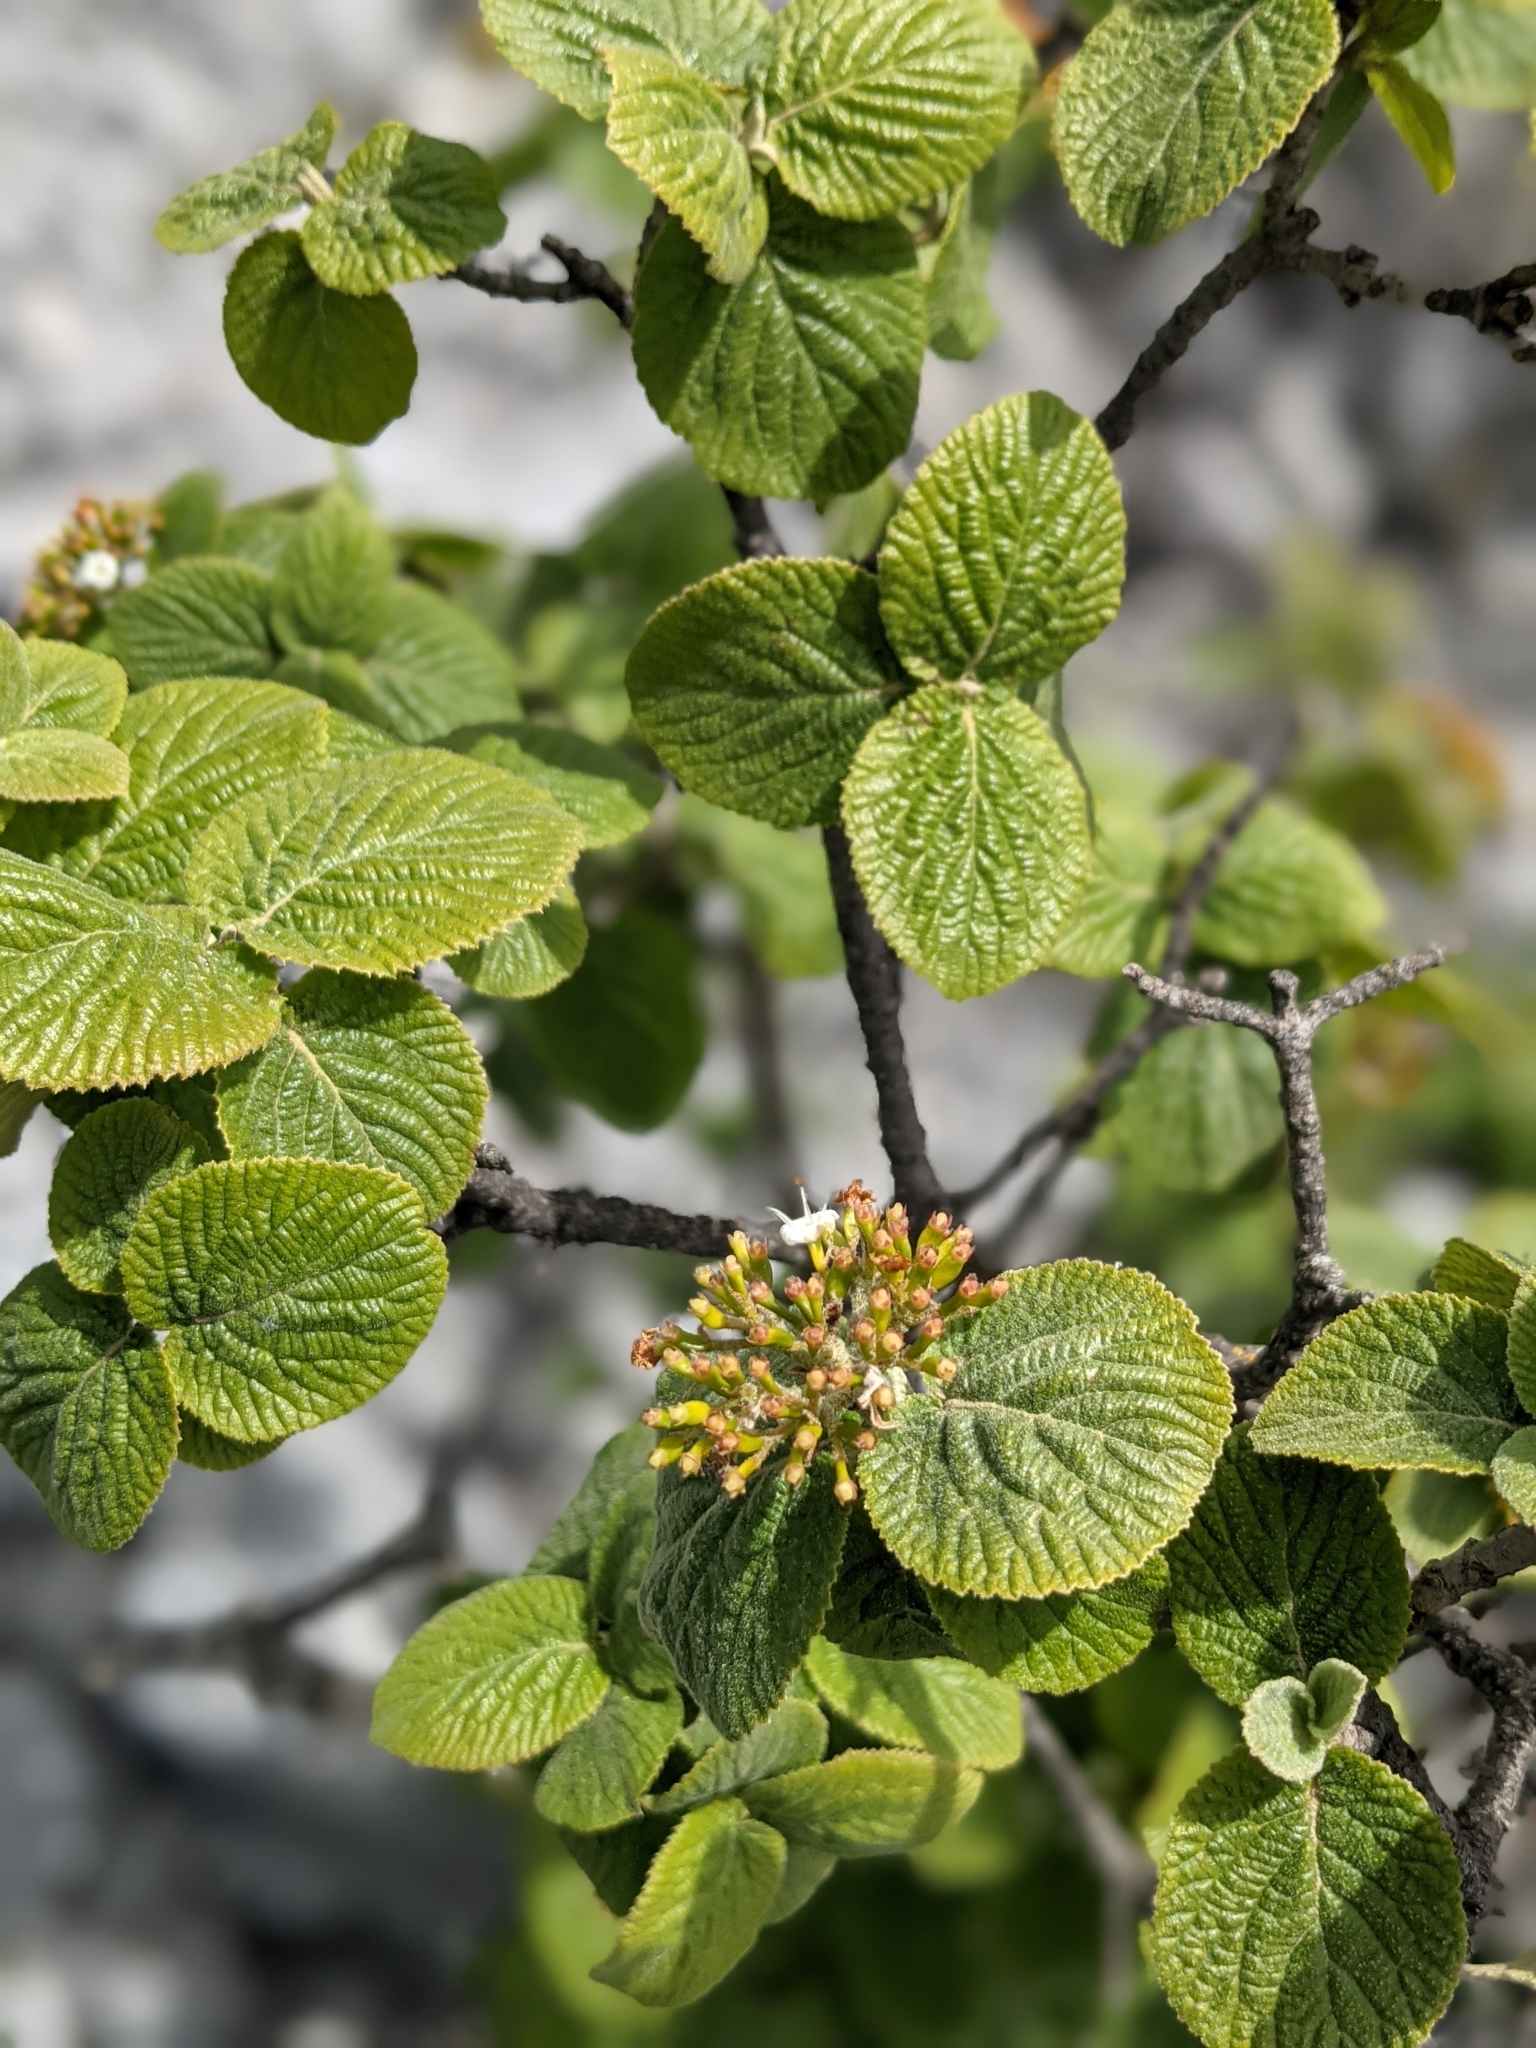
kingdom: Plantae
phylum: Tracheophyta
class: Magnoliopsida
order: Dipsacales
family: Viburnaceae
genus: Viburnum
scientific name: Viburnum lantana
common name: Wayfaring tree
